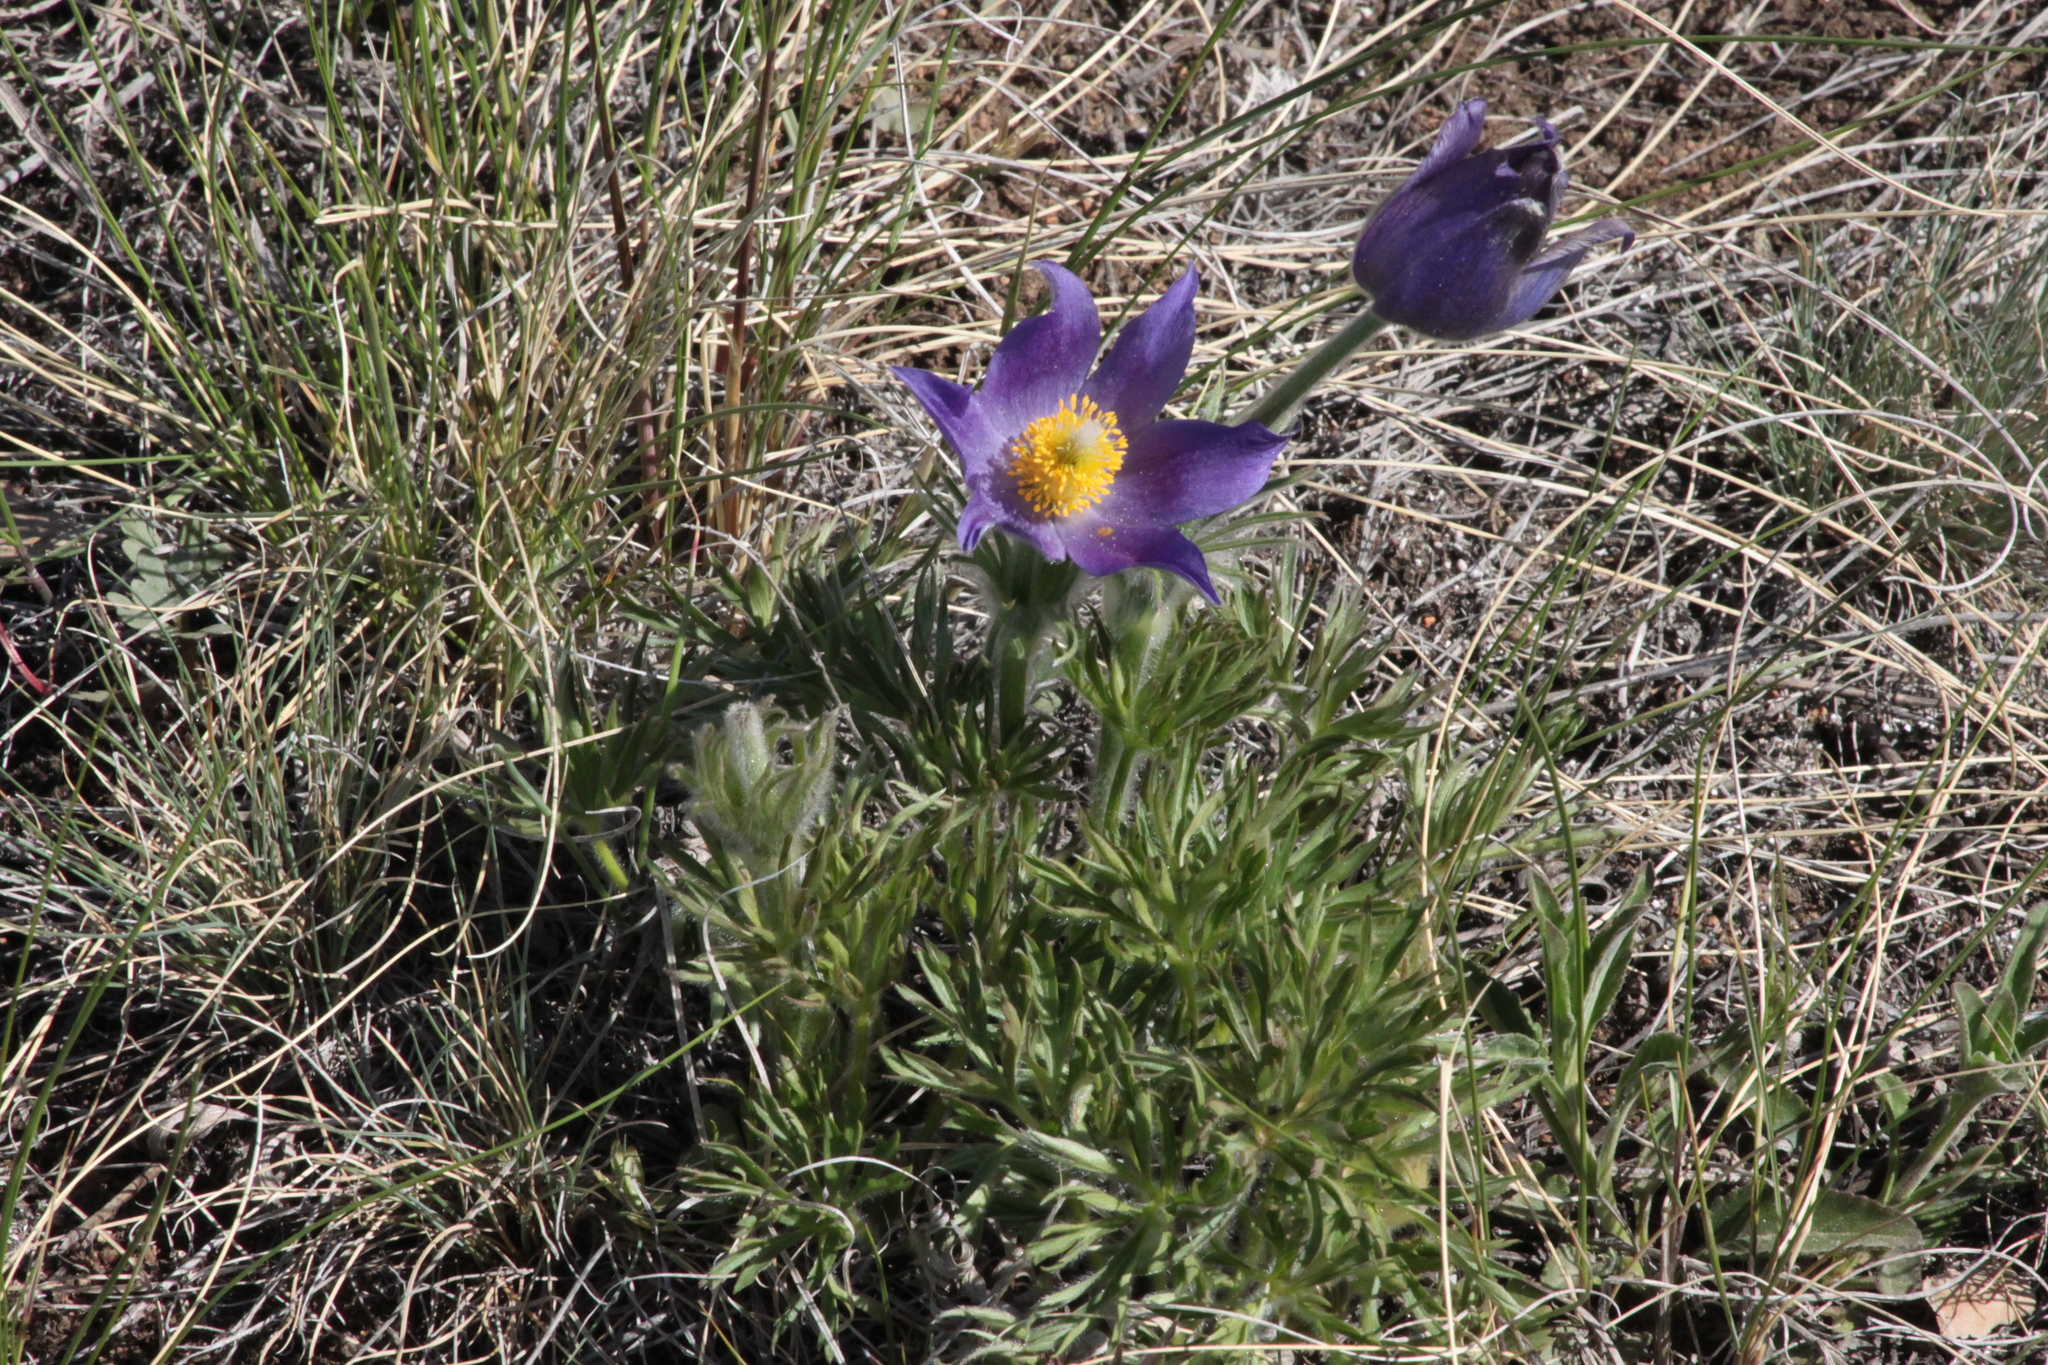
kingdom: Plantae
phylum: Tracheophyta
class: Magnoliopsida
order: Ranunculales
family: Ranunculaceae
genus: Pulsatilla
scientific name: Pulsatilla patens
